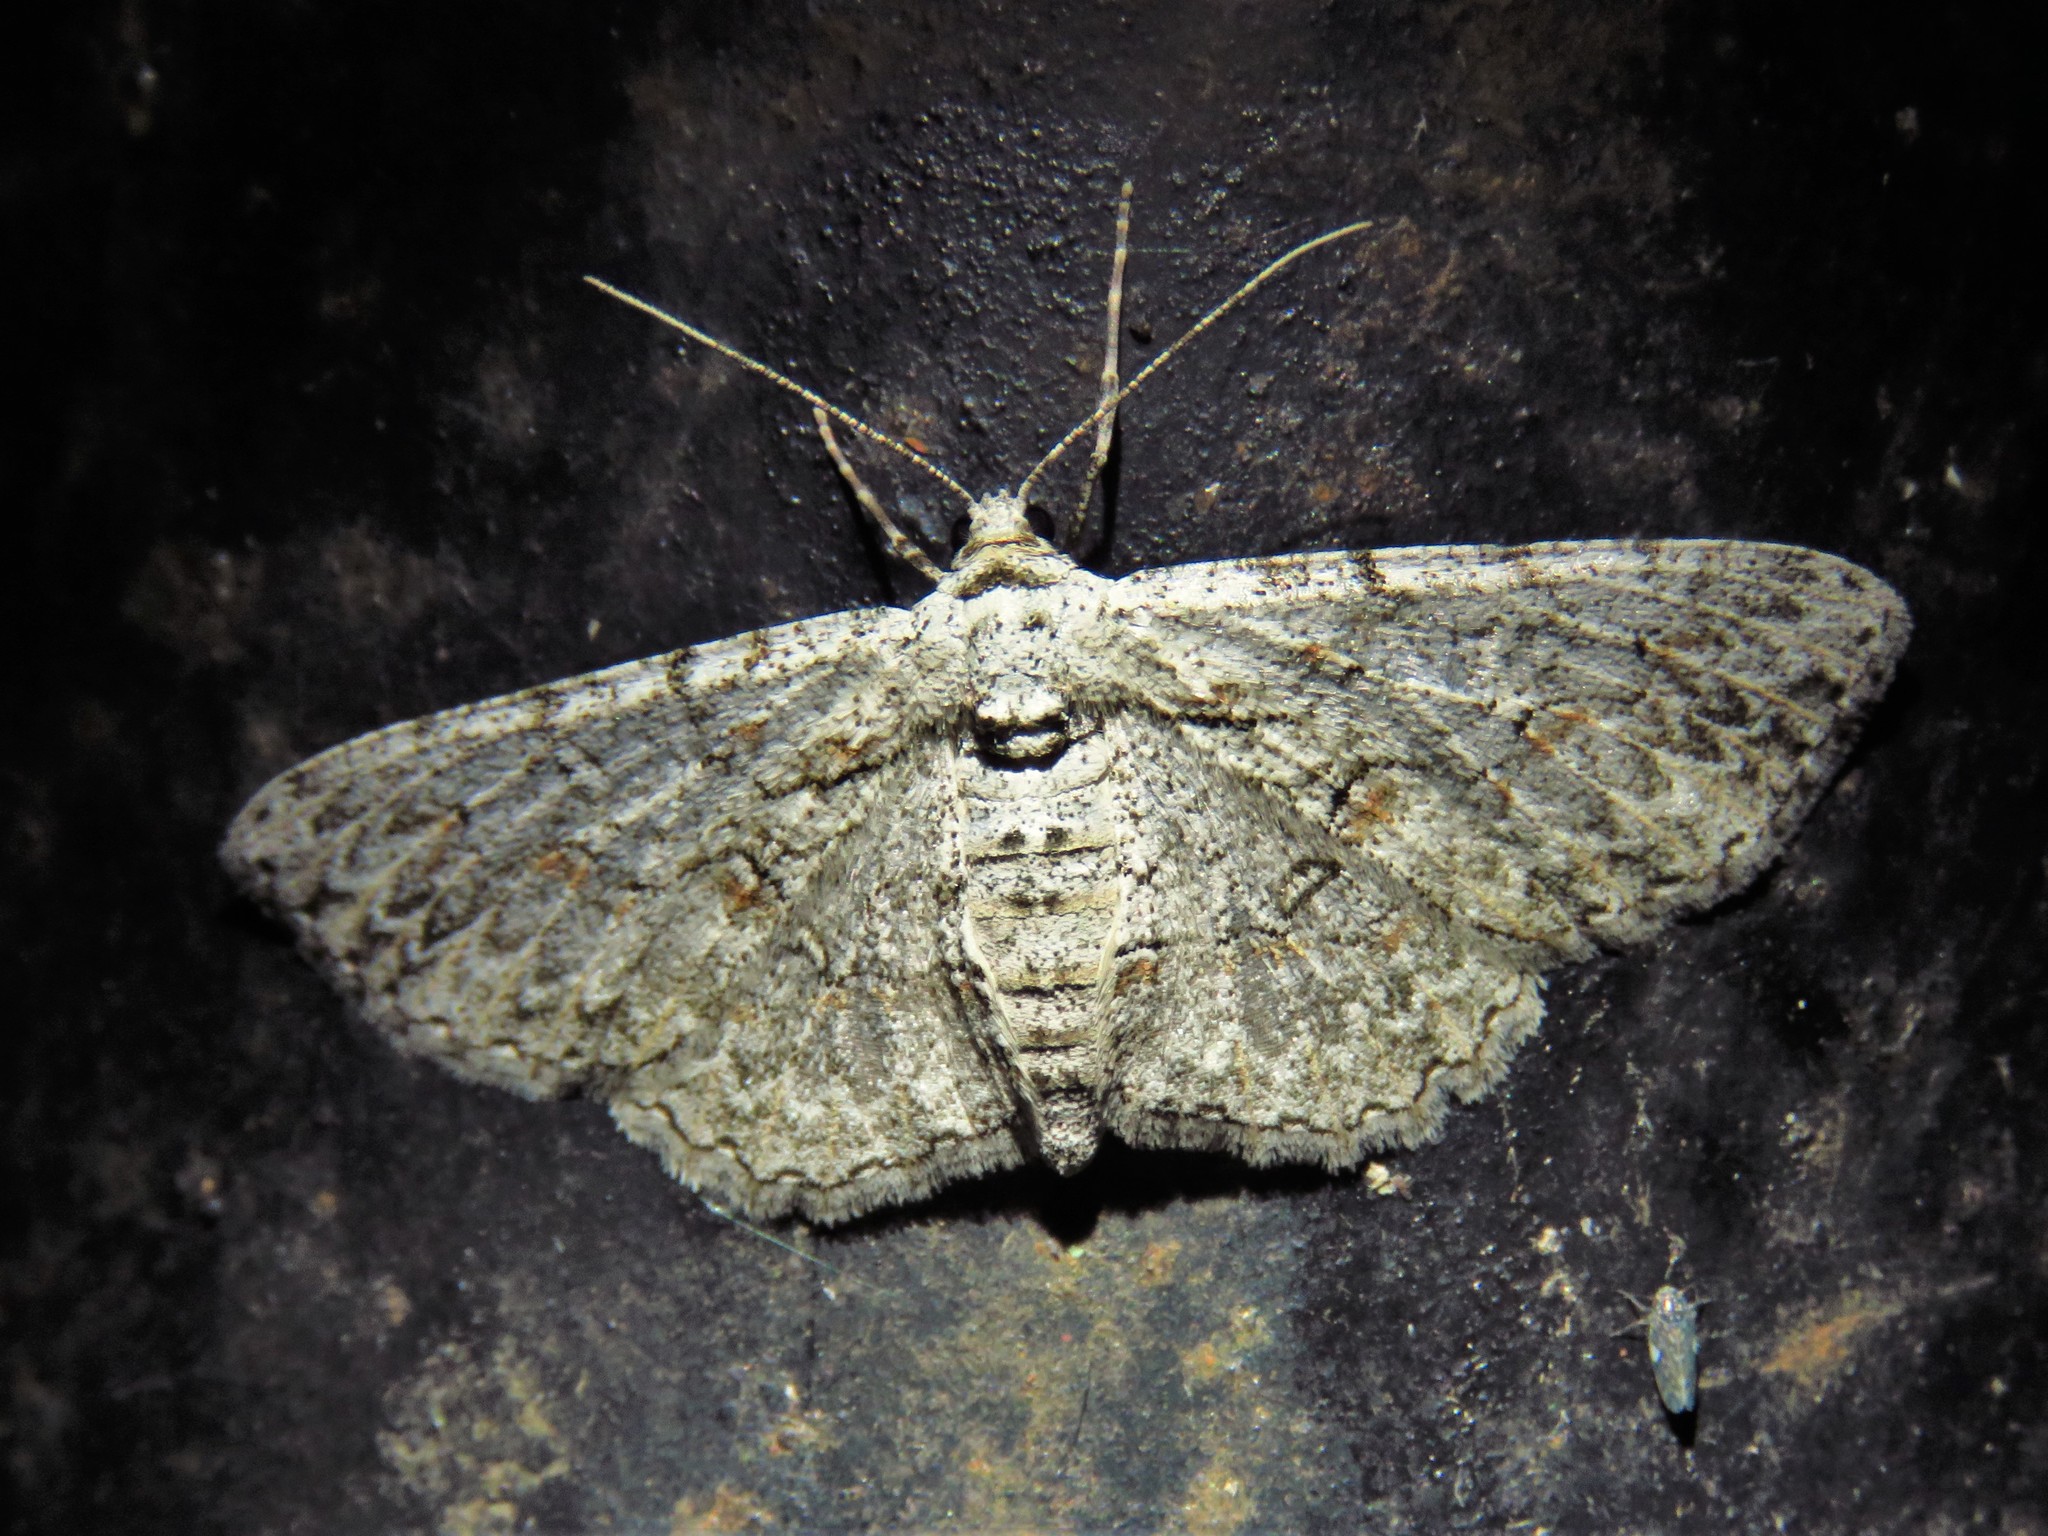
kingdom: Animalia
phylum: Arthropoda
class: Insecta
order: Lepidoptera
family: Geometridae
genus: Iridopsis
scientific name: Iridopsis defectaria
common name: Brown-shaded gray
